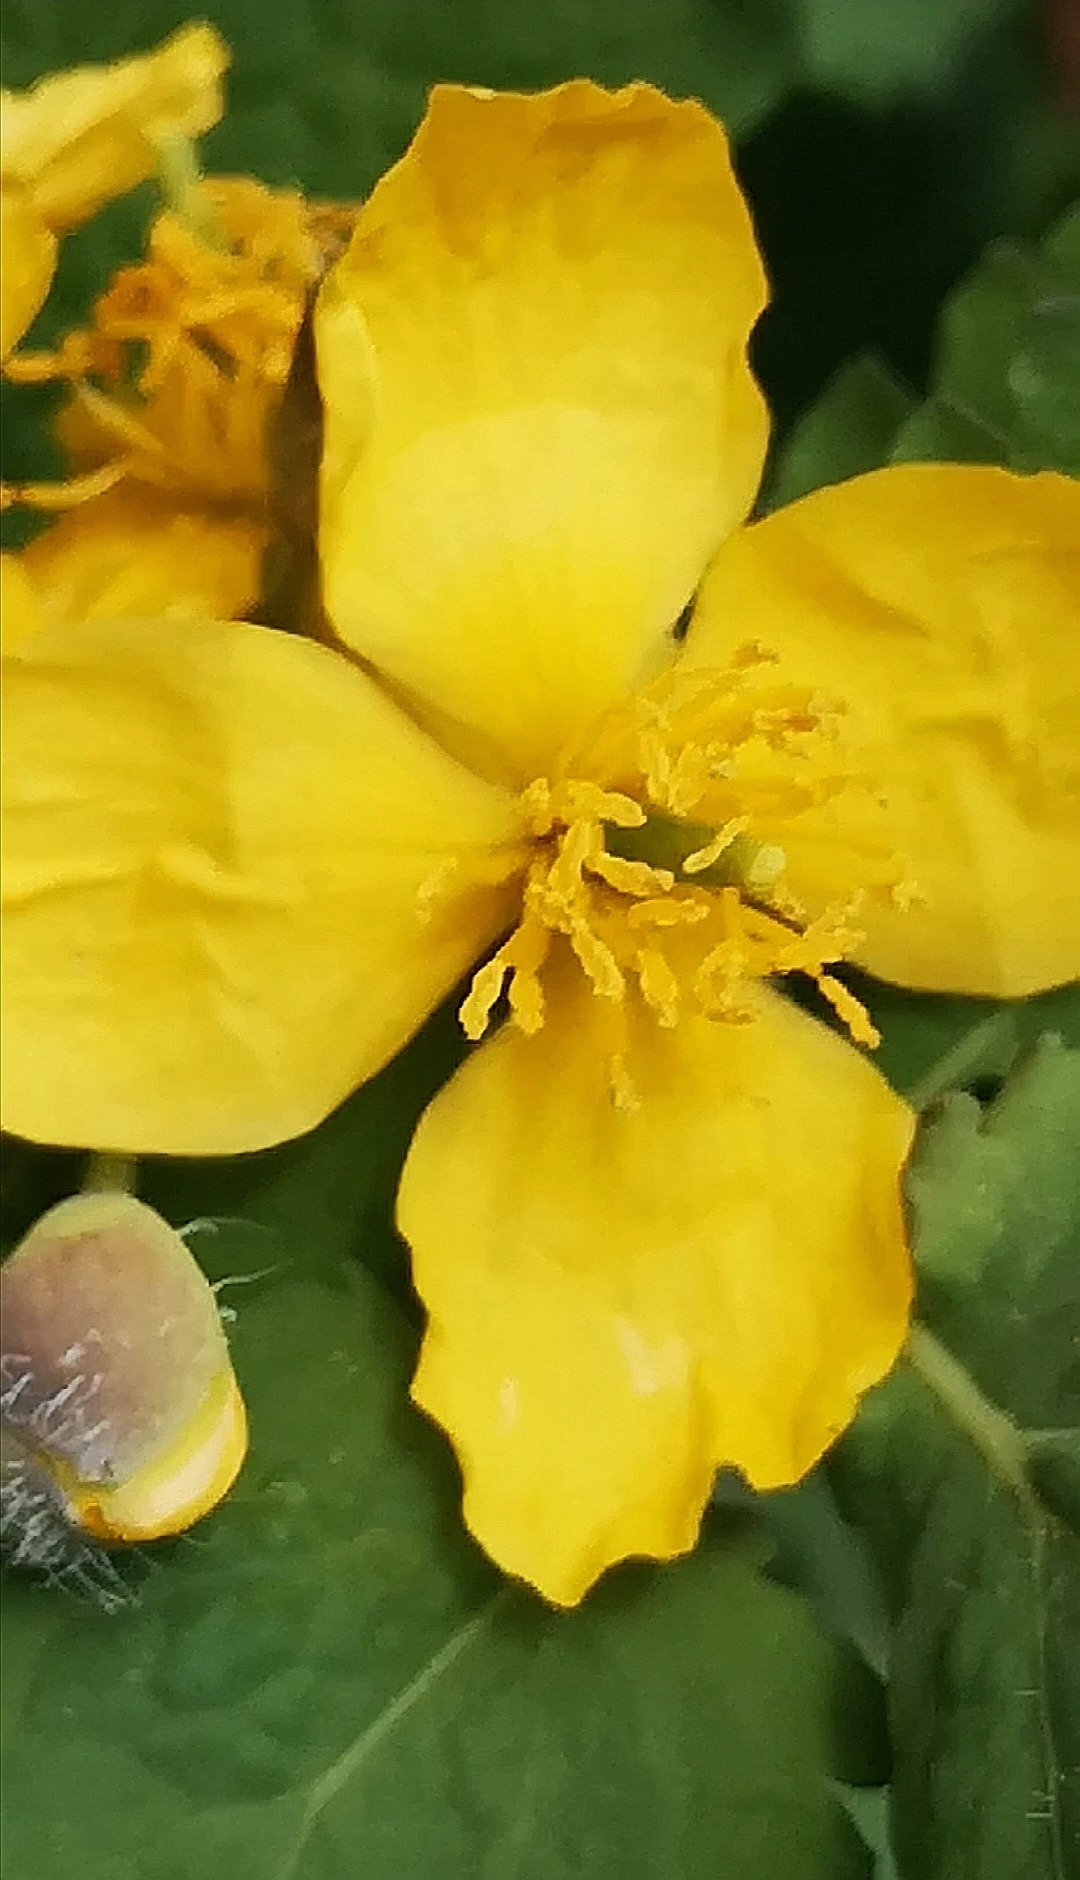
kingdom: Plantae
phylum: Tracheophyta
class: Magnoliopsida
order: Ranunculales
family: Papaveraceae
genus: Chelidonium
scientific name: Chelidonium majus
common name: Greater celandine
